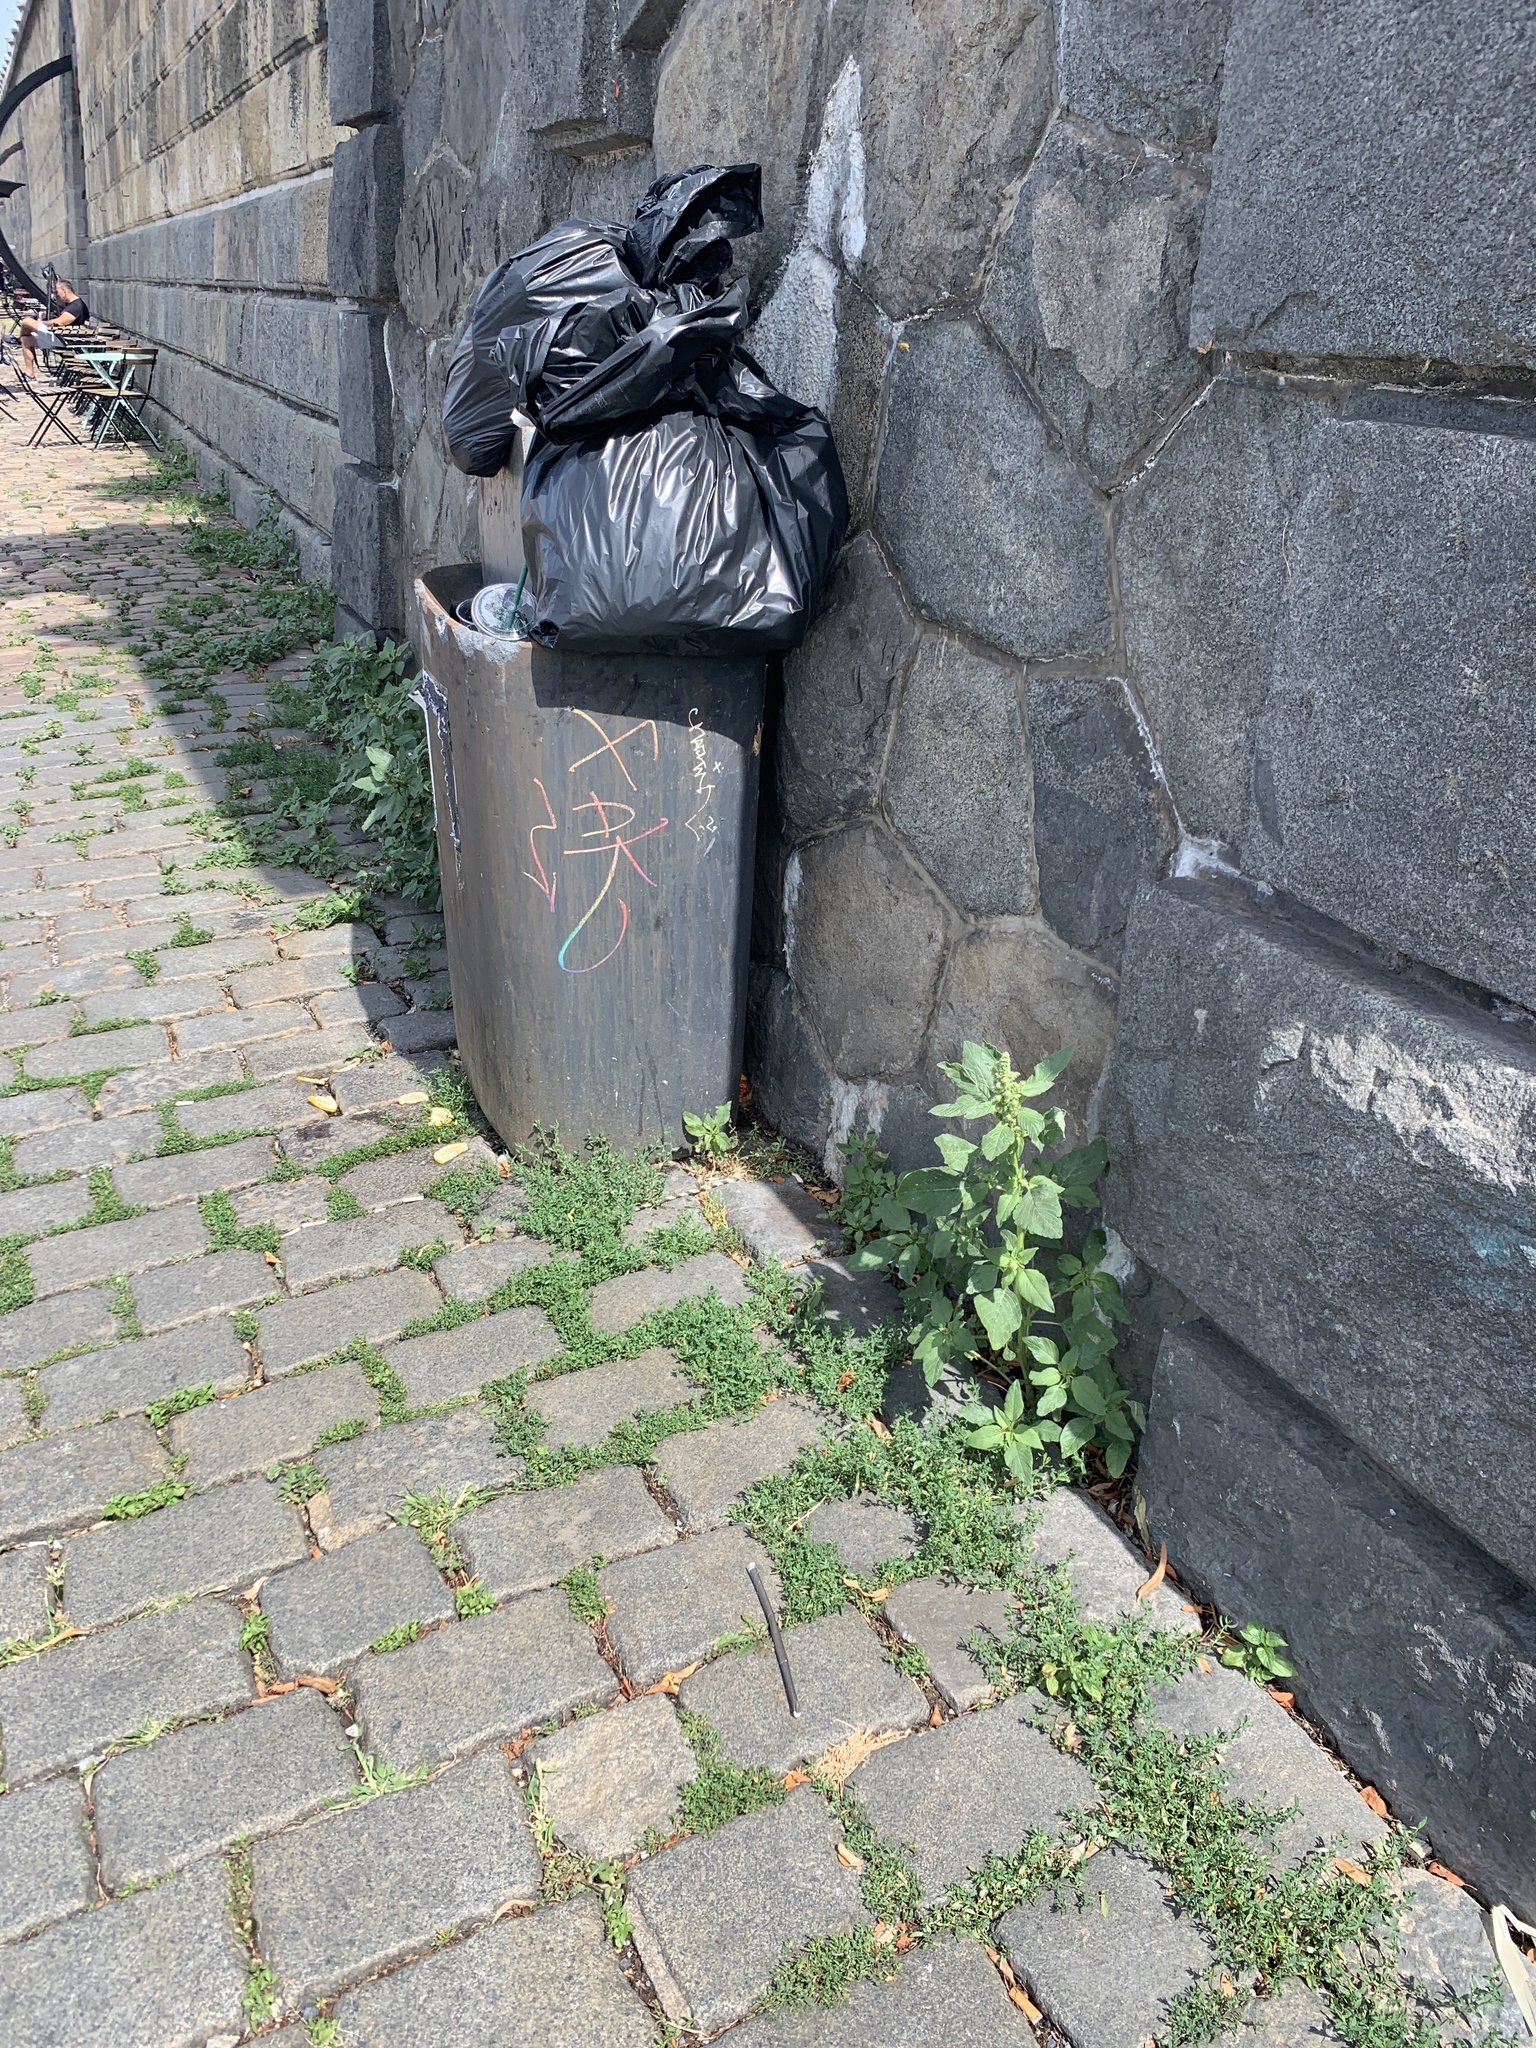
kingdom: Plantae
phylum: Tracheophyta
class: Magnoliopsida
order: Caryophyllales
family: Amaranthaceae
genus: Amaranthus
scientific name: Amaranthus retroflexus
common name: Redroot amaranth
